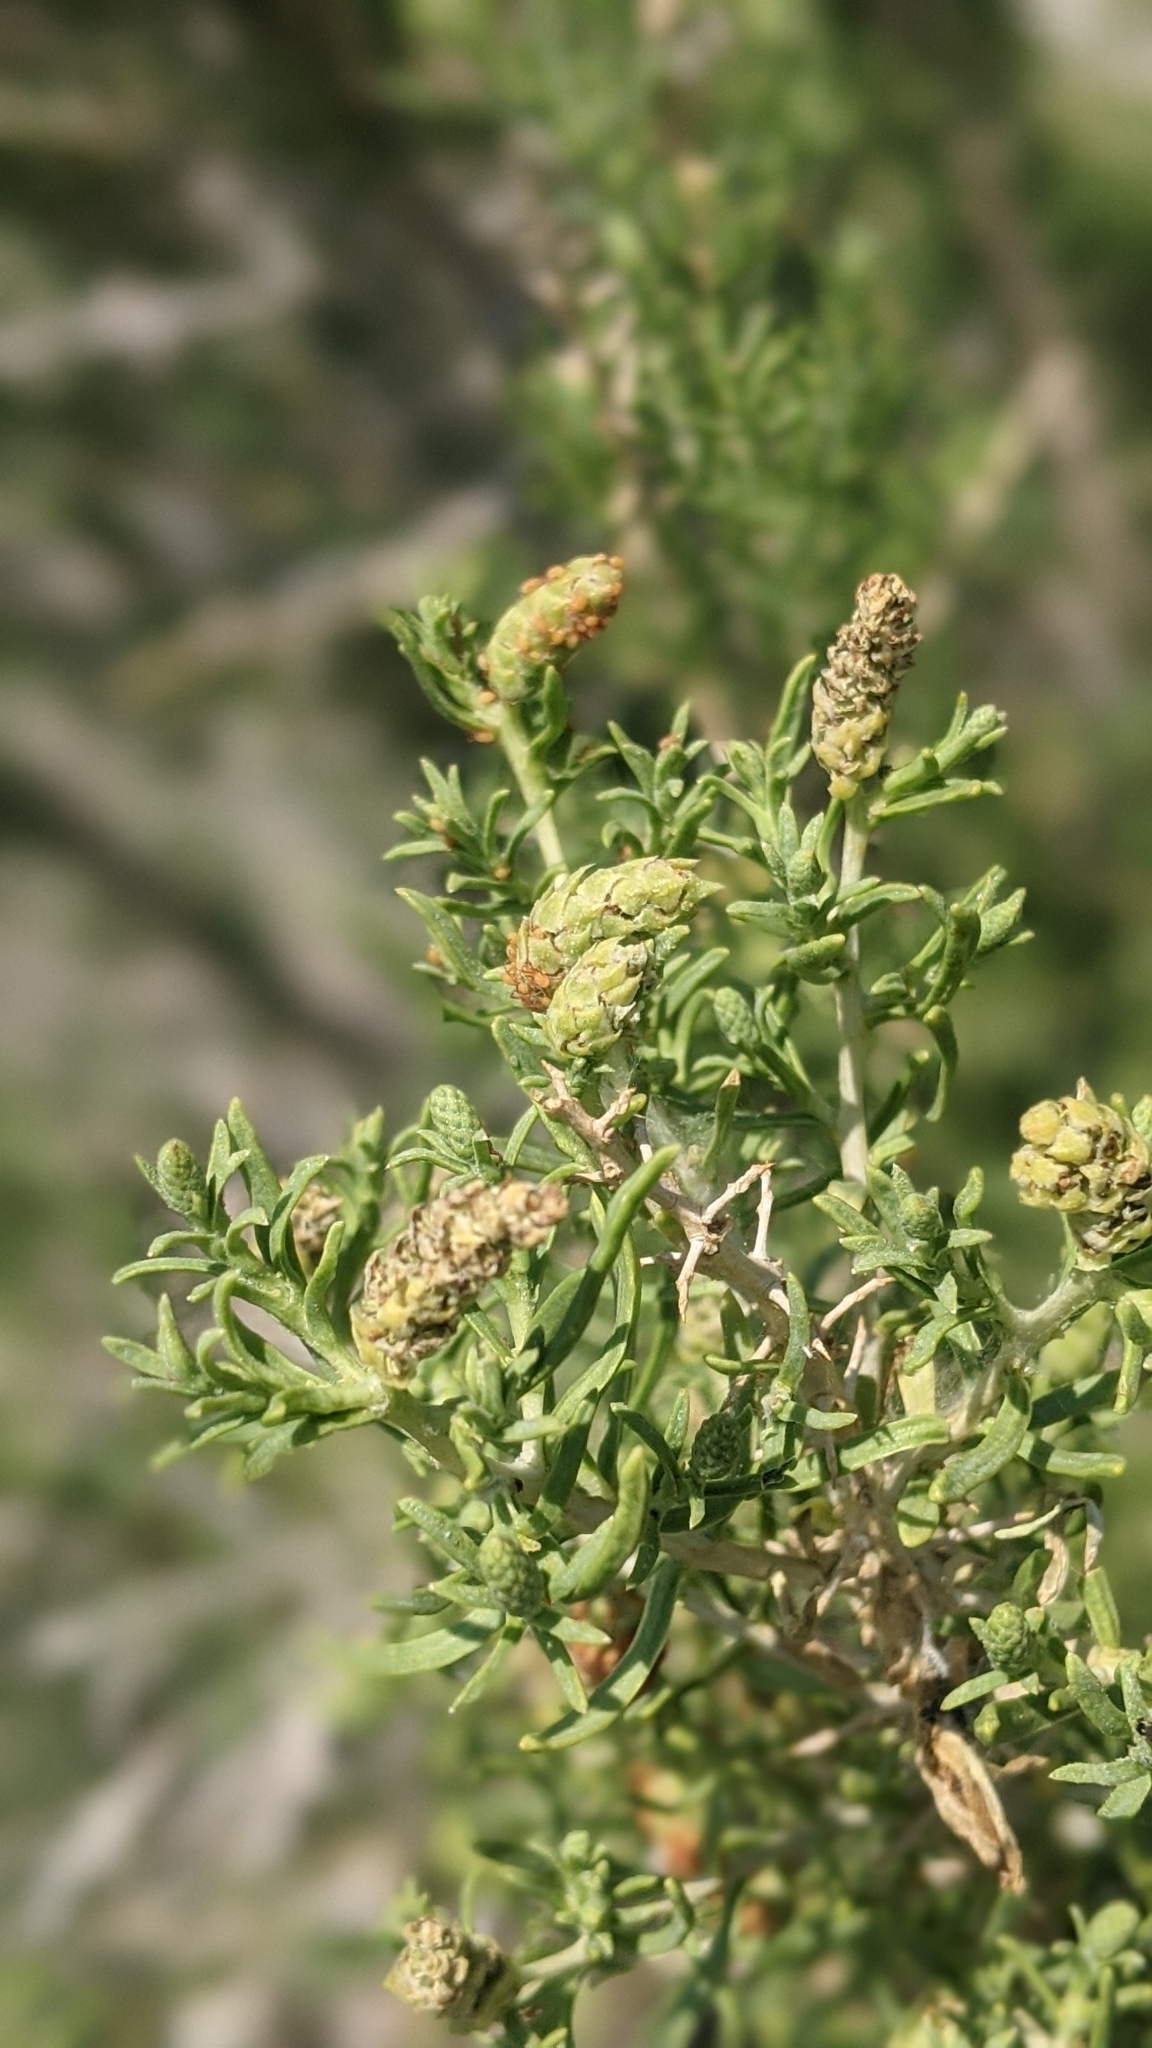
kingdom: Plantae
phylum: Tracheophyta
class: Magnoliopsida
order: Caryophyllales
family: Sarcobataceae
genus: Sarcobatus
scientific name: Sarcobatus vermiculatus
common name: Greasewood
